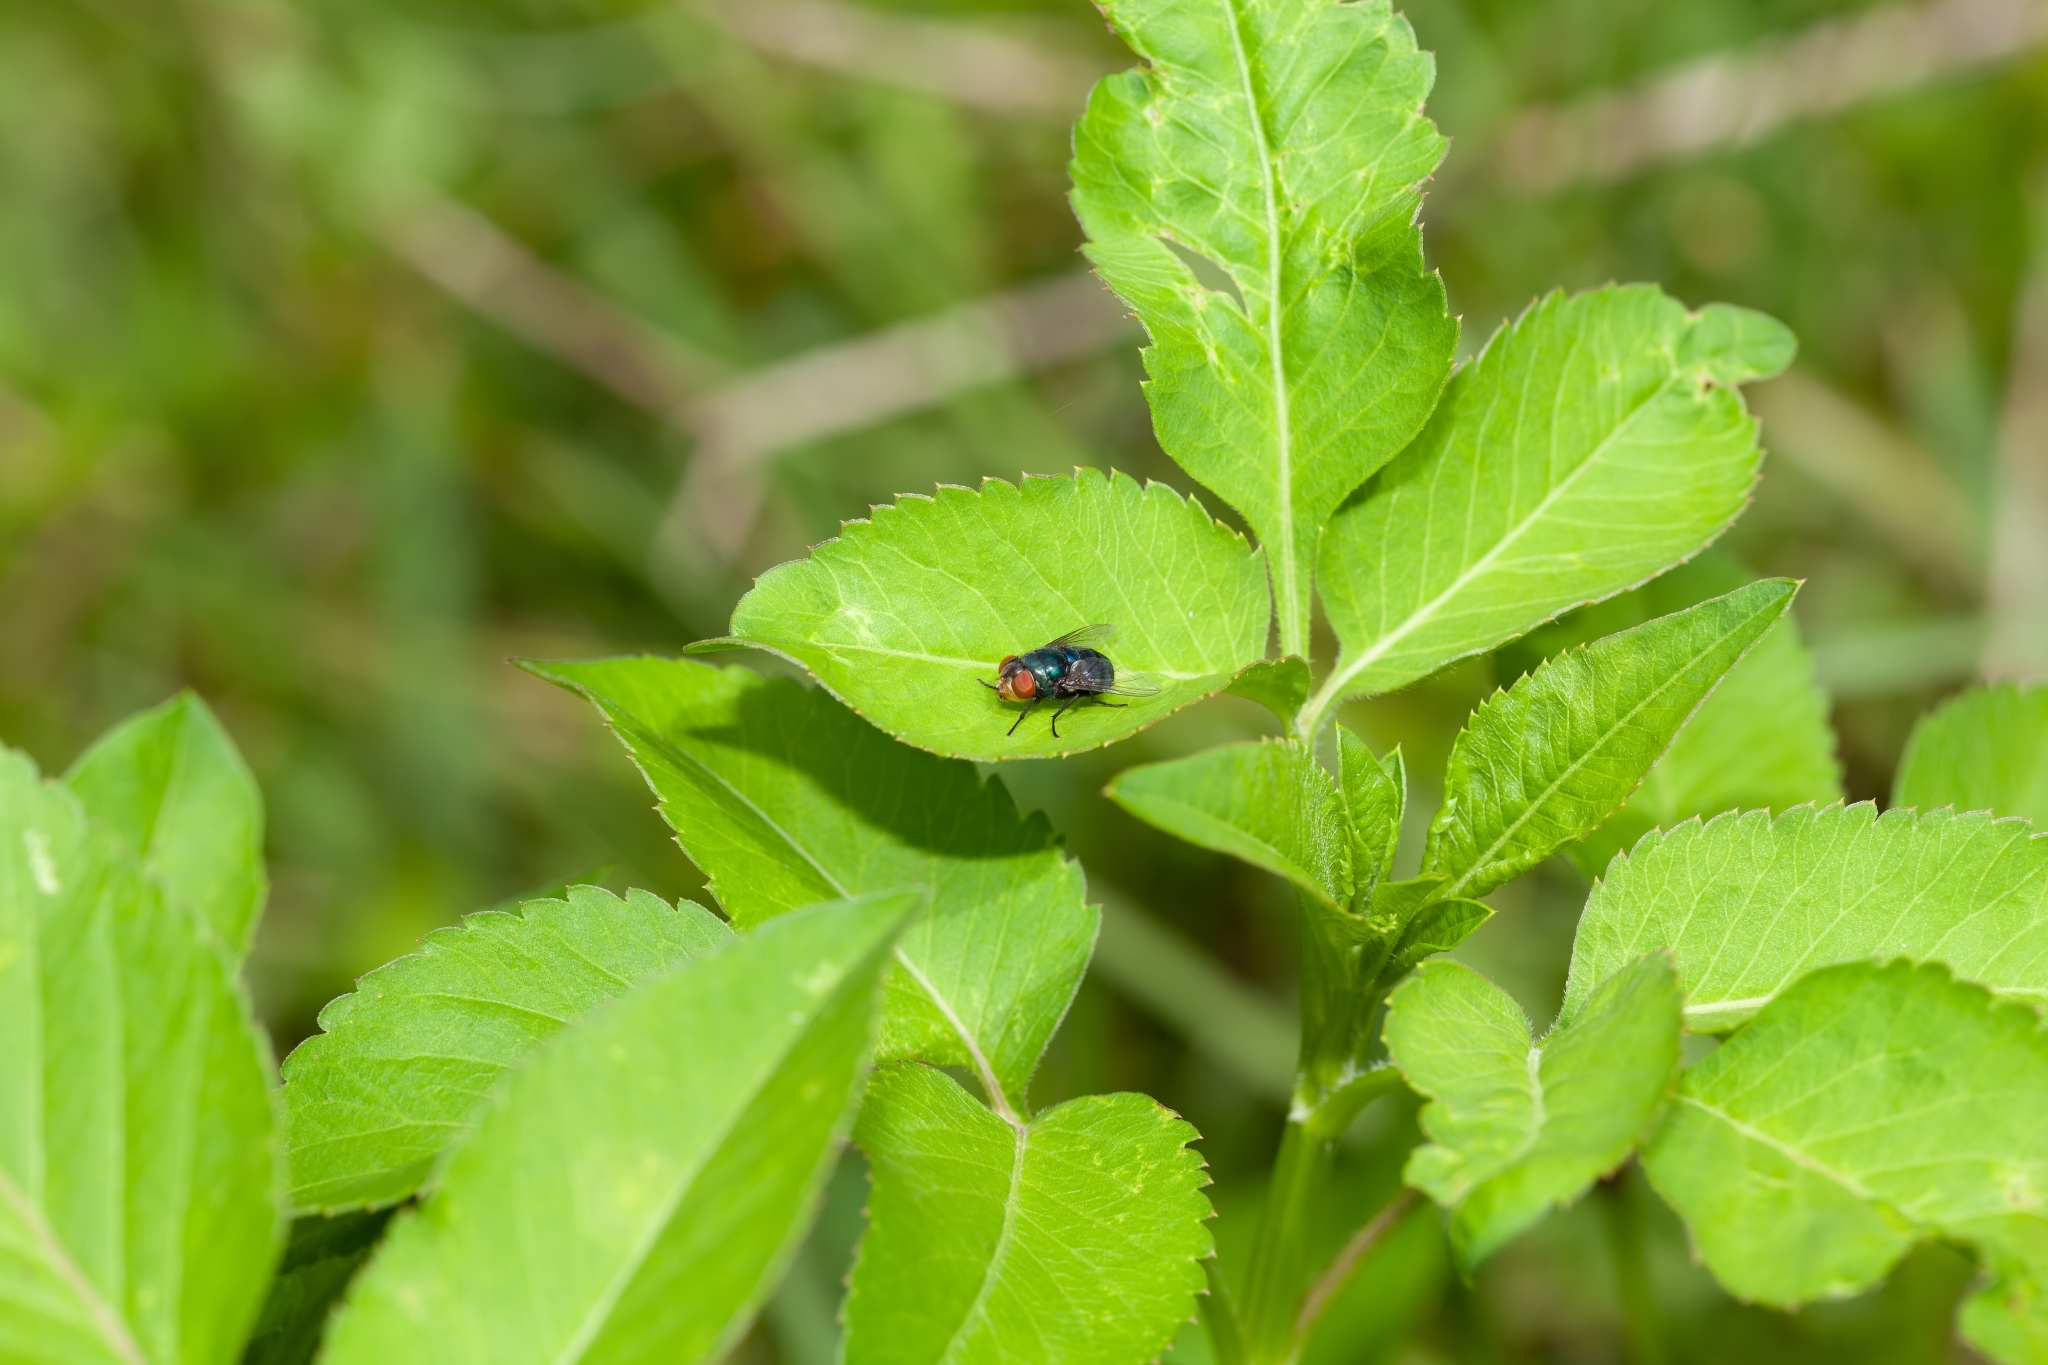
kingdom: Animalia
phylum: Arthropoda
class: Insecta
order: Diptera
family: Calliphoridae
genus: Chrysomya
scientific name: Chrysomya megacephala
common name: Blow fly
